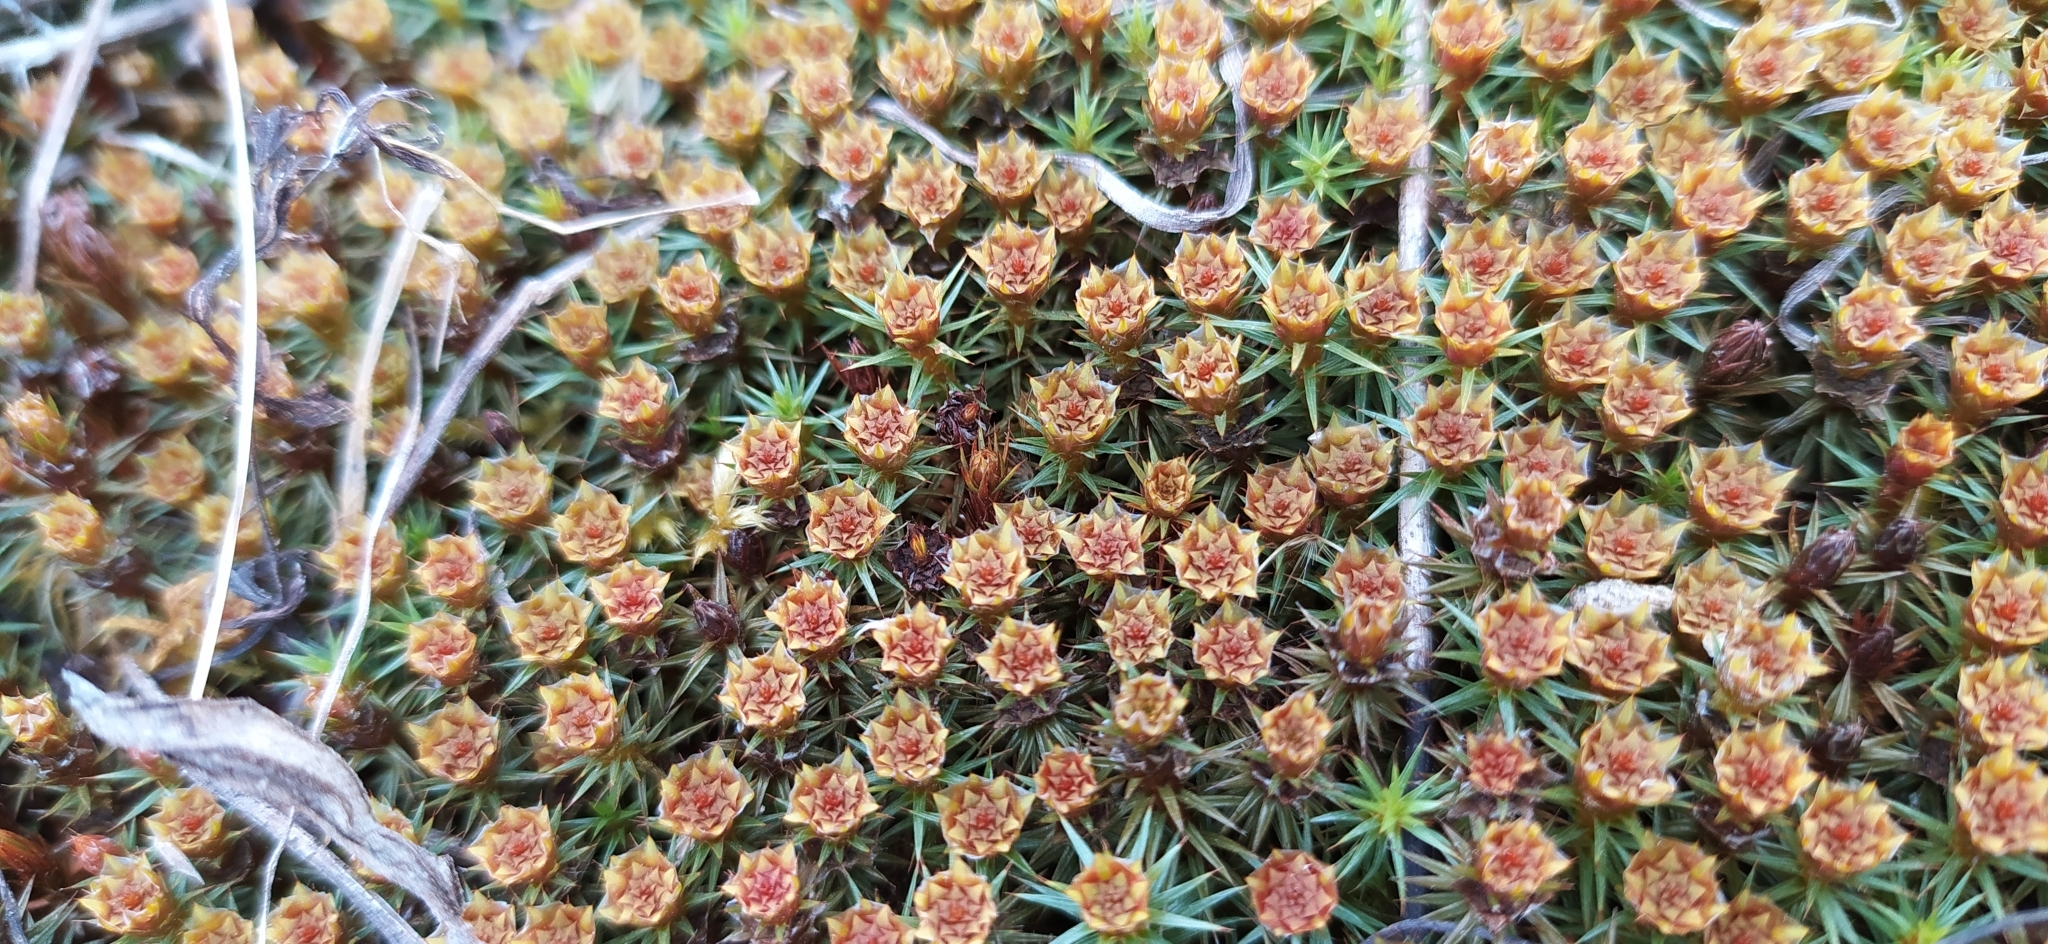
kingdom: Plantae
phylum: Bryophyta
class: Polytrichopsida
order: Polytrichales
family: Polytrichaceae
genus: Polytrichum
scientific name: Polytrichum juniperinum
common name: Juniper haircap moss
